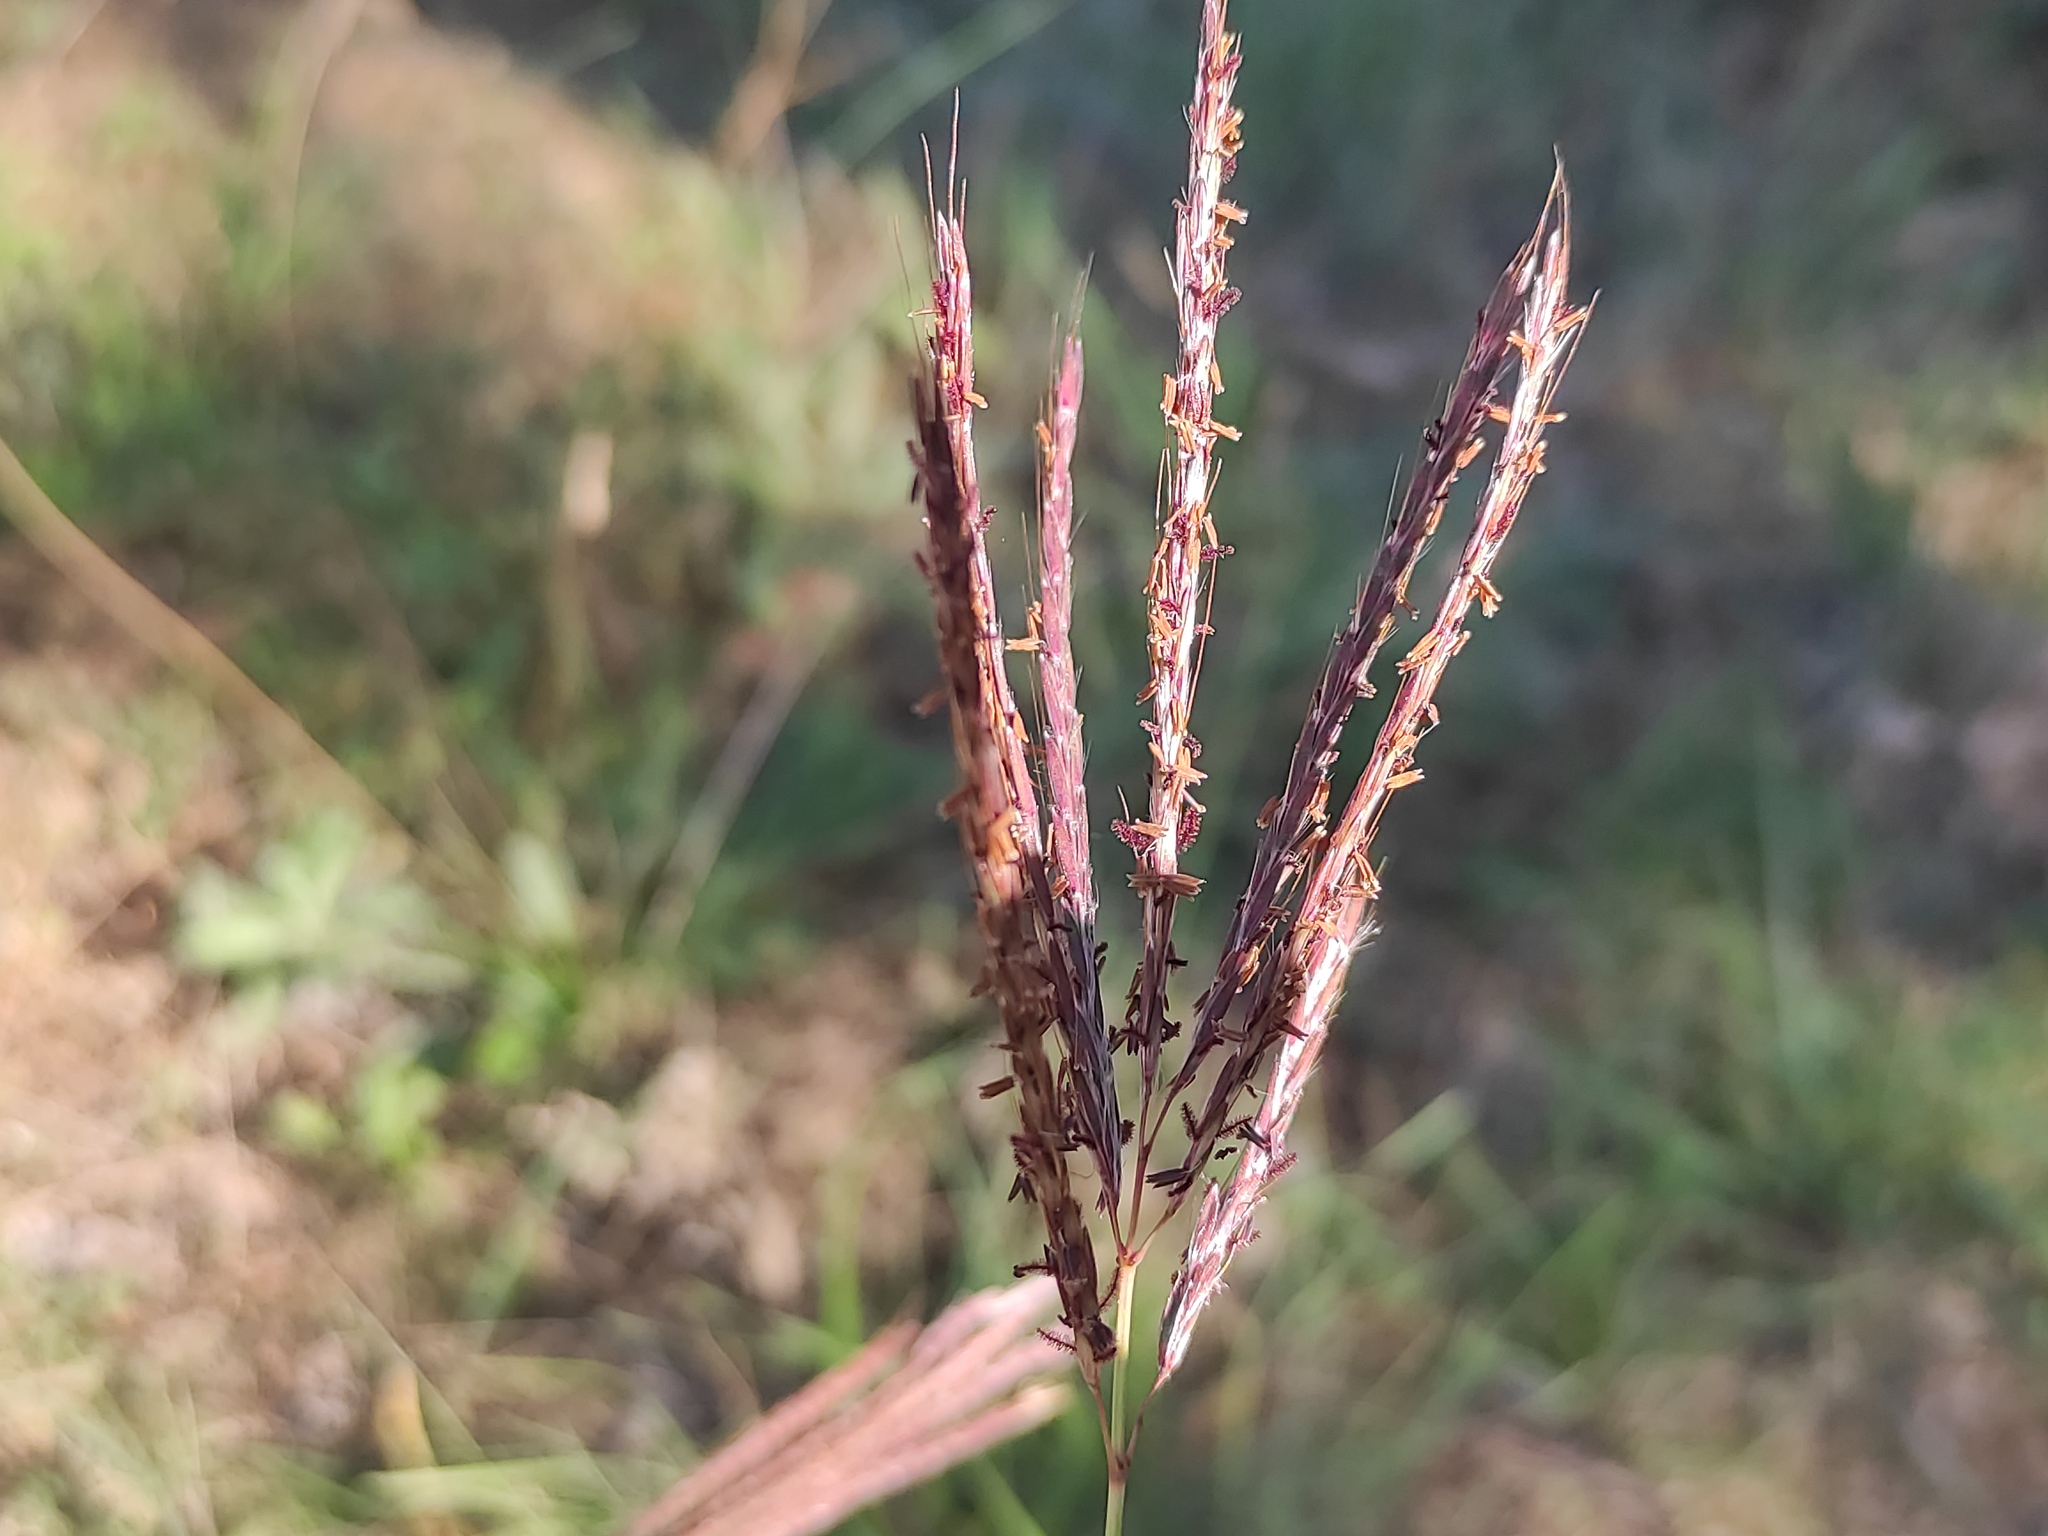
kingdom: Plantae
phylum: Tracheophyta
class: Liliopsida
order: Poales
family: Poaceae
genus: Bothriochloa
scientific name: Bothriochloa ischaemum
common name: Yellow bluestem
